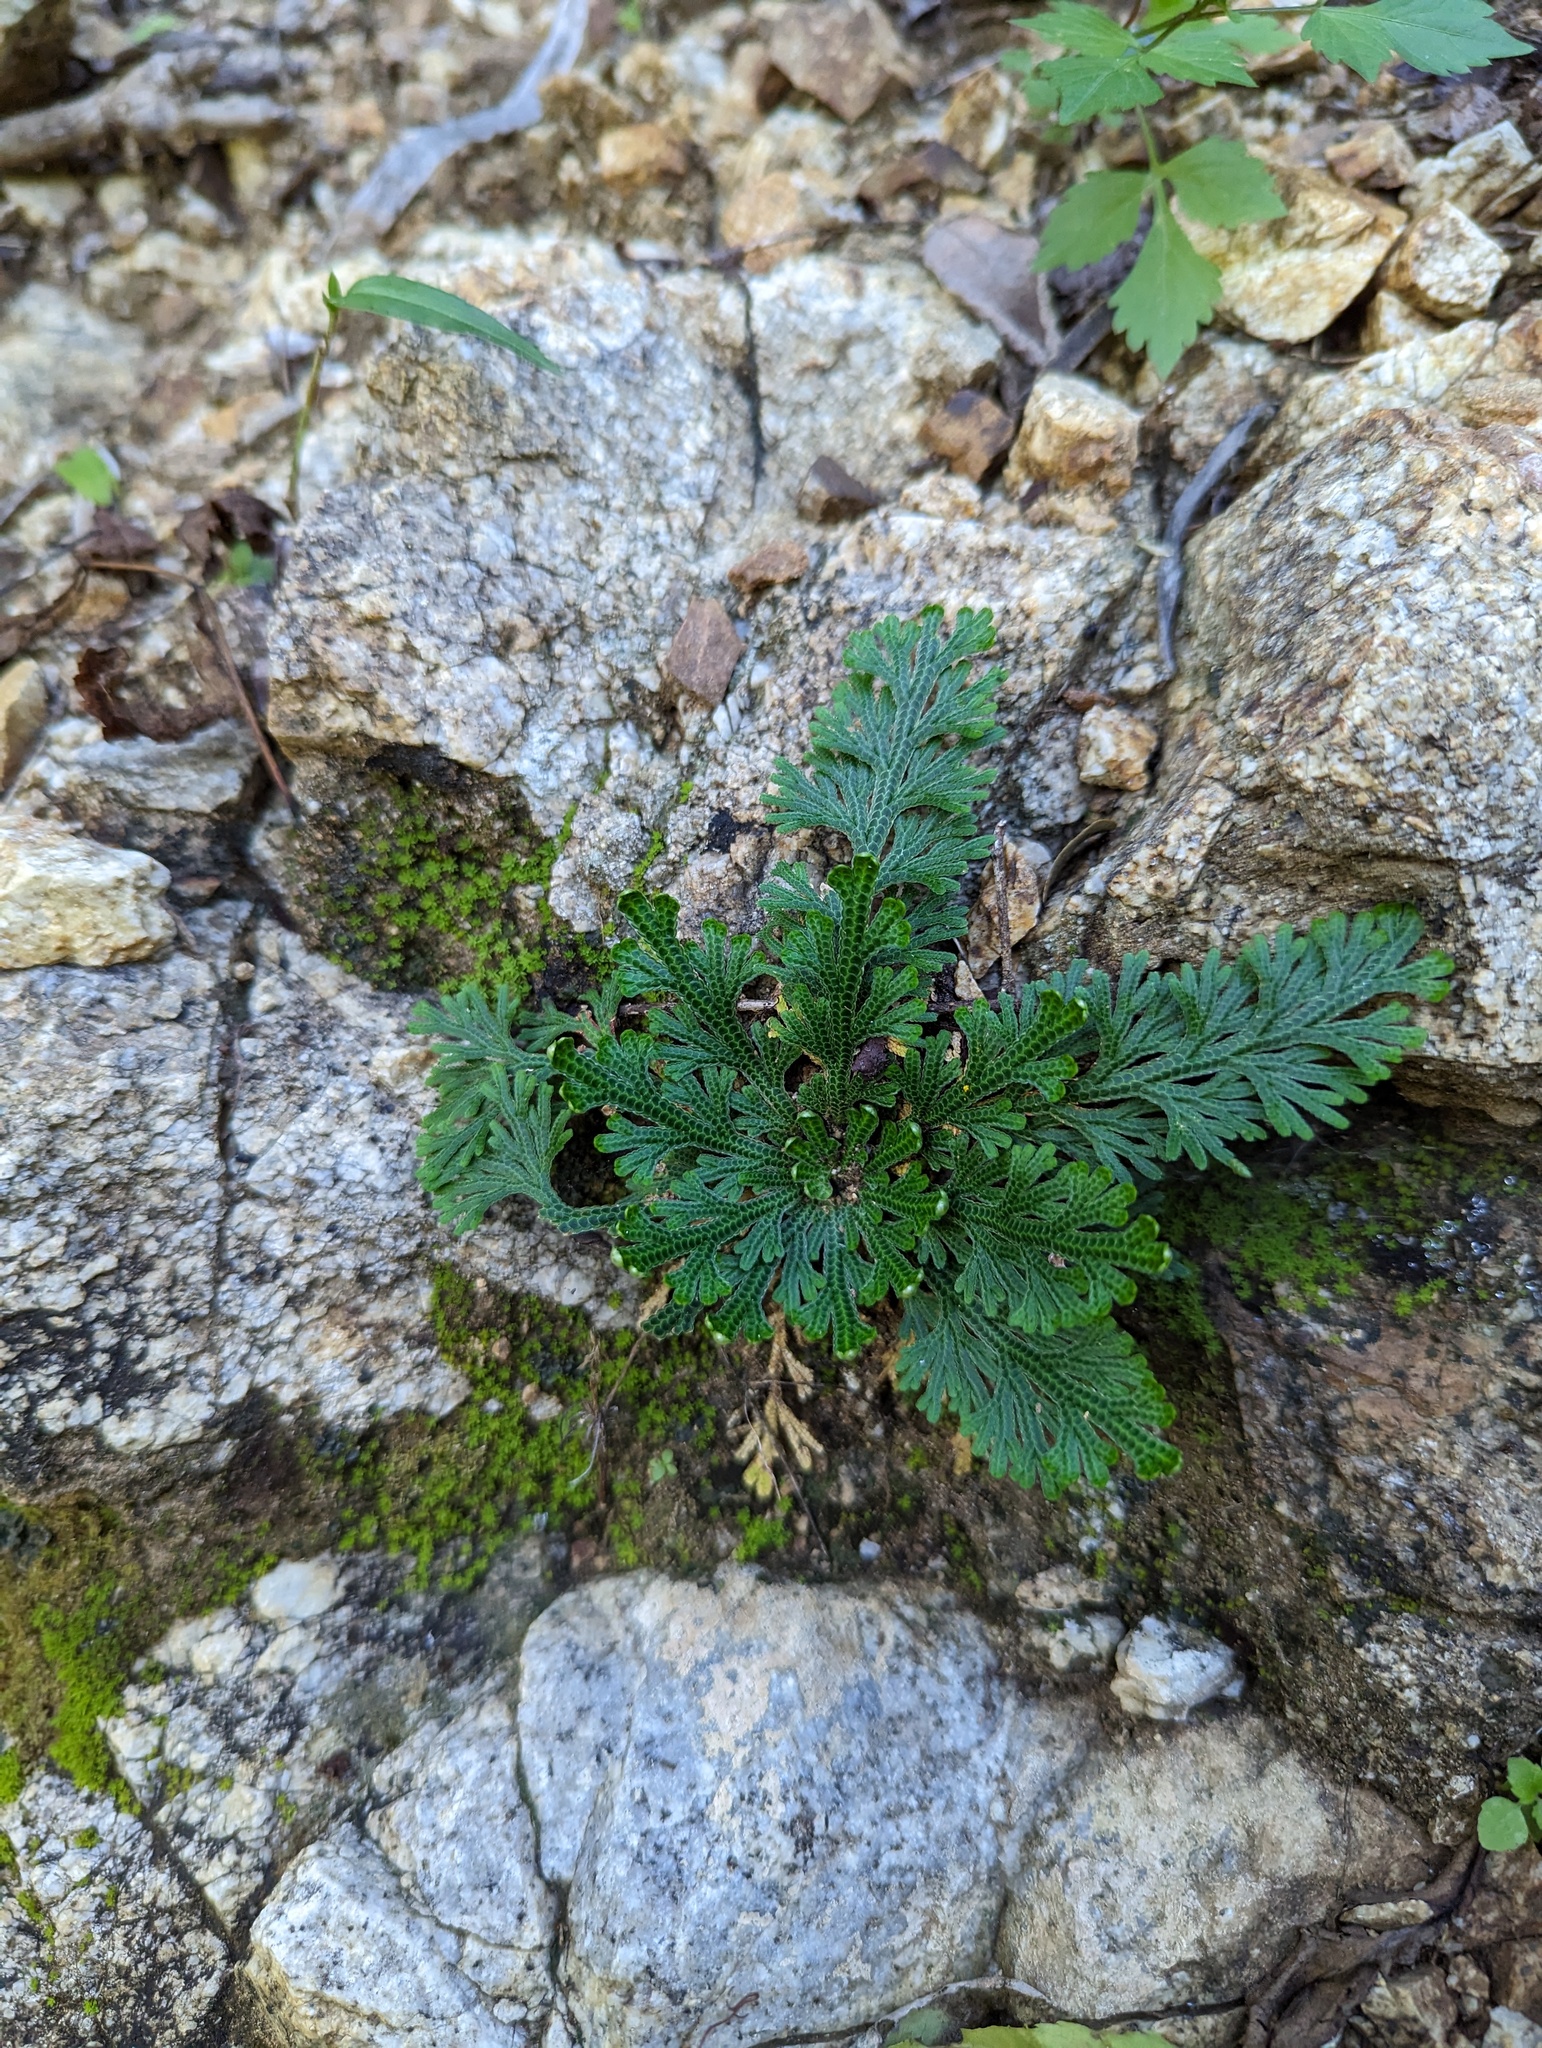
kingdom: Plantae
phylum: Tracheophyta
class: Lycopodiopsida
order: Selaginellales
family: Selaginellaceae
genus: Selaginella
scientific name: Selaginella lepidophylla
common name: Rose-of-jericho
